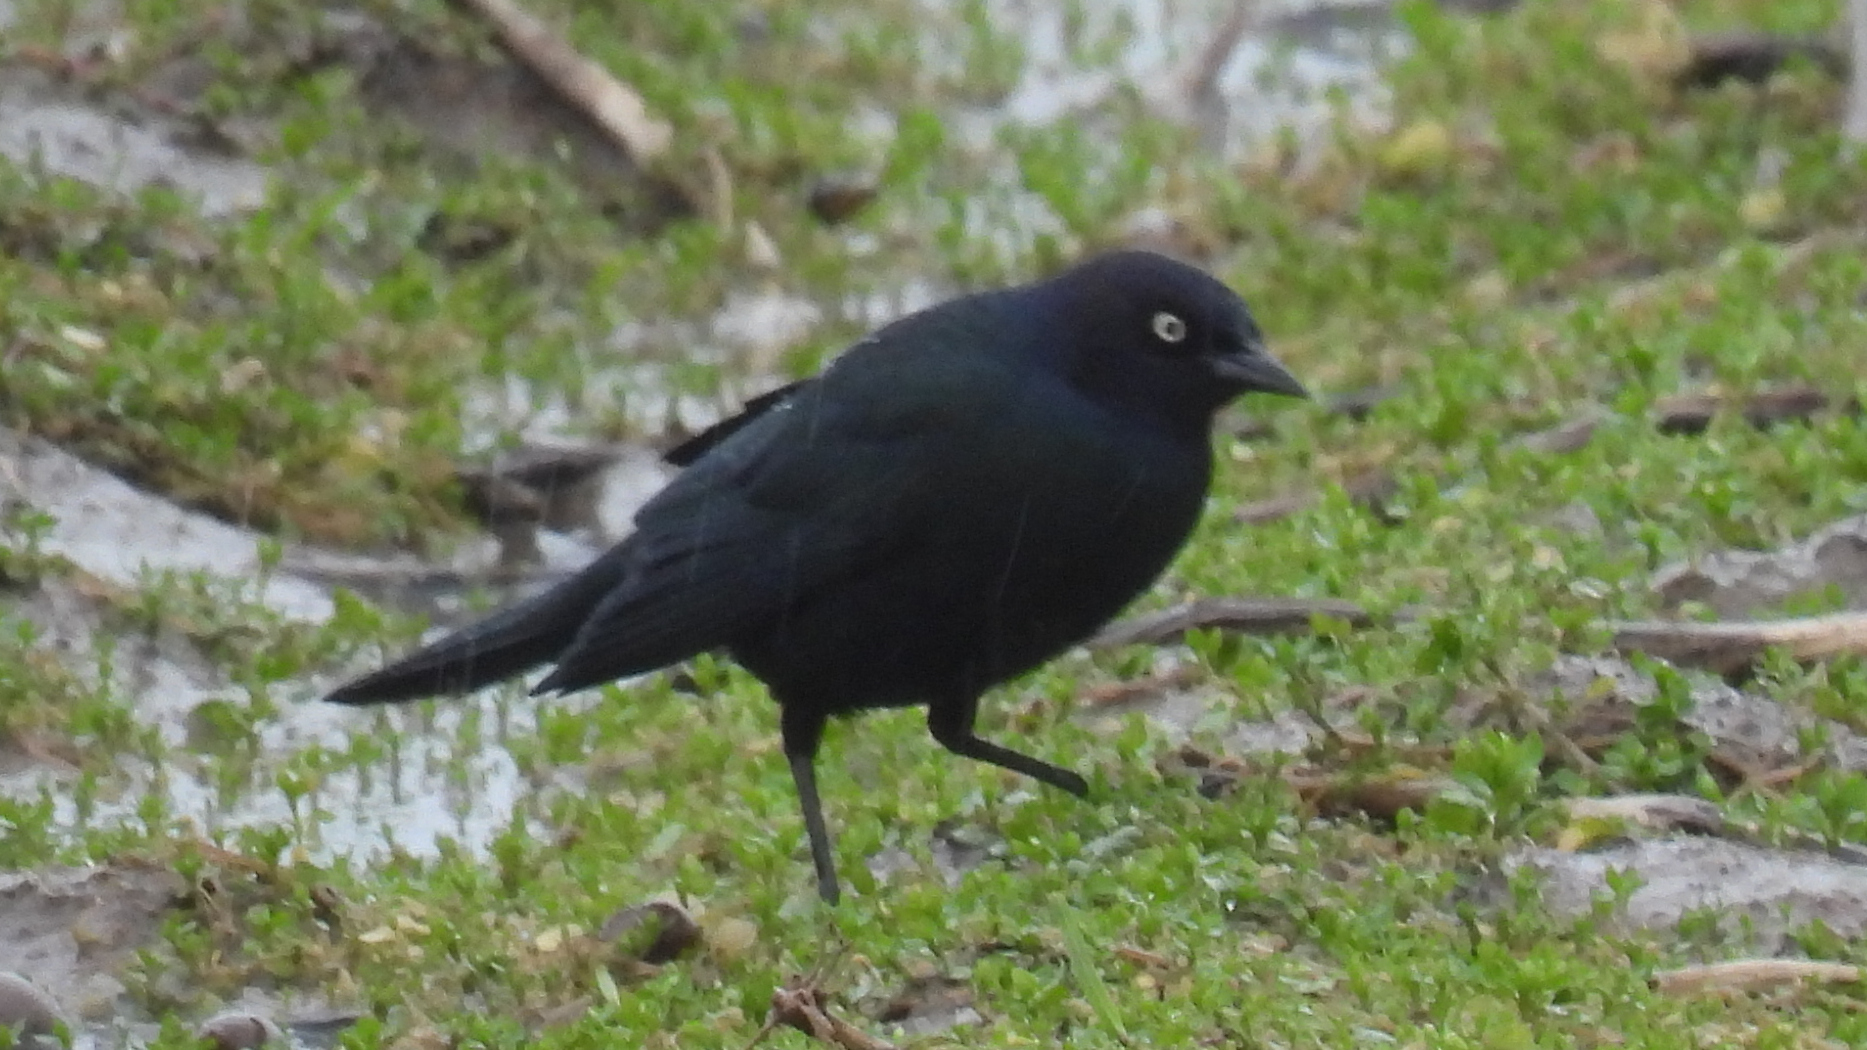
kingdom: Animalia
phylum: Chordata
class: Aves
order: Passeriformes
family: Icteridae
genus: Euphagus
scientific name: Euphagus cyanocephalus
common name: Brewer's blackbird
